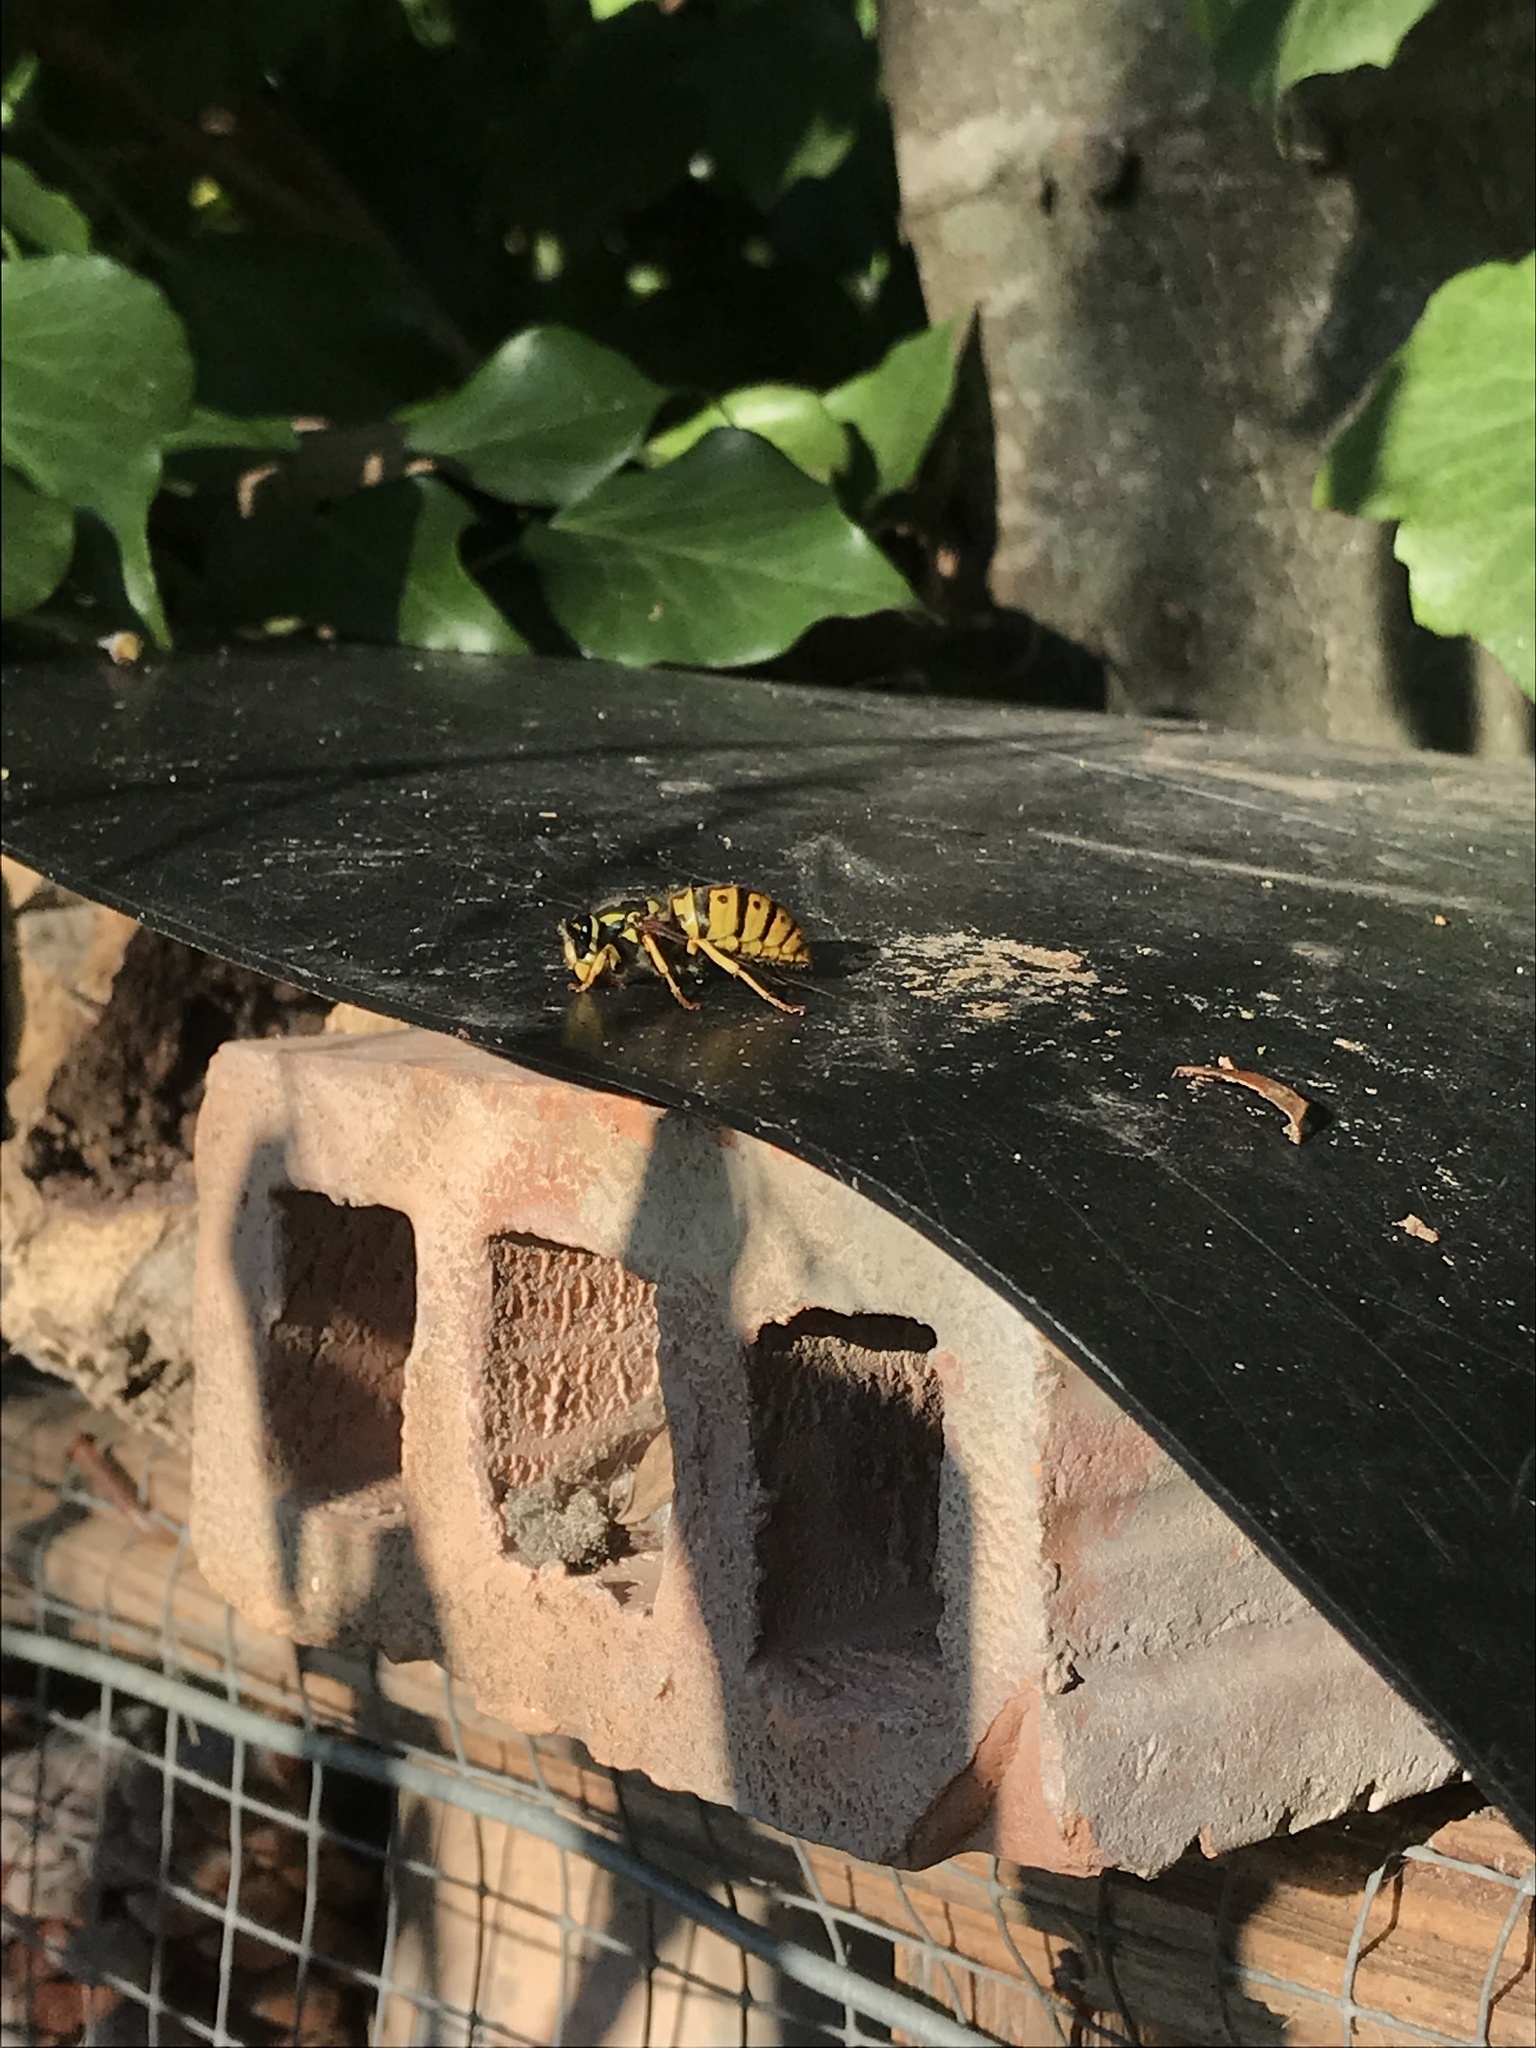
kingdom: Animalia
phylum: Arthropoda
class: Insecta
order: Hymenoptera
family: Vespidae
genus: Vespula
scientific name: Vespula germanica
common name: German wasp
